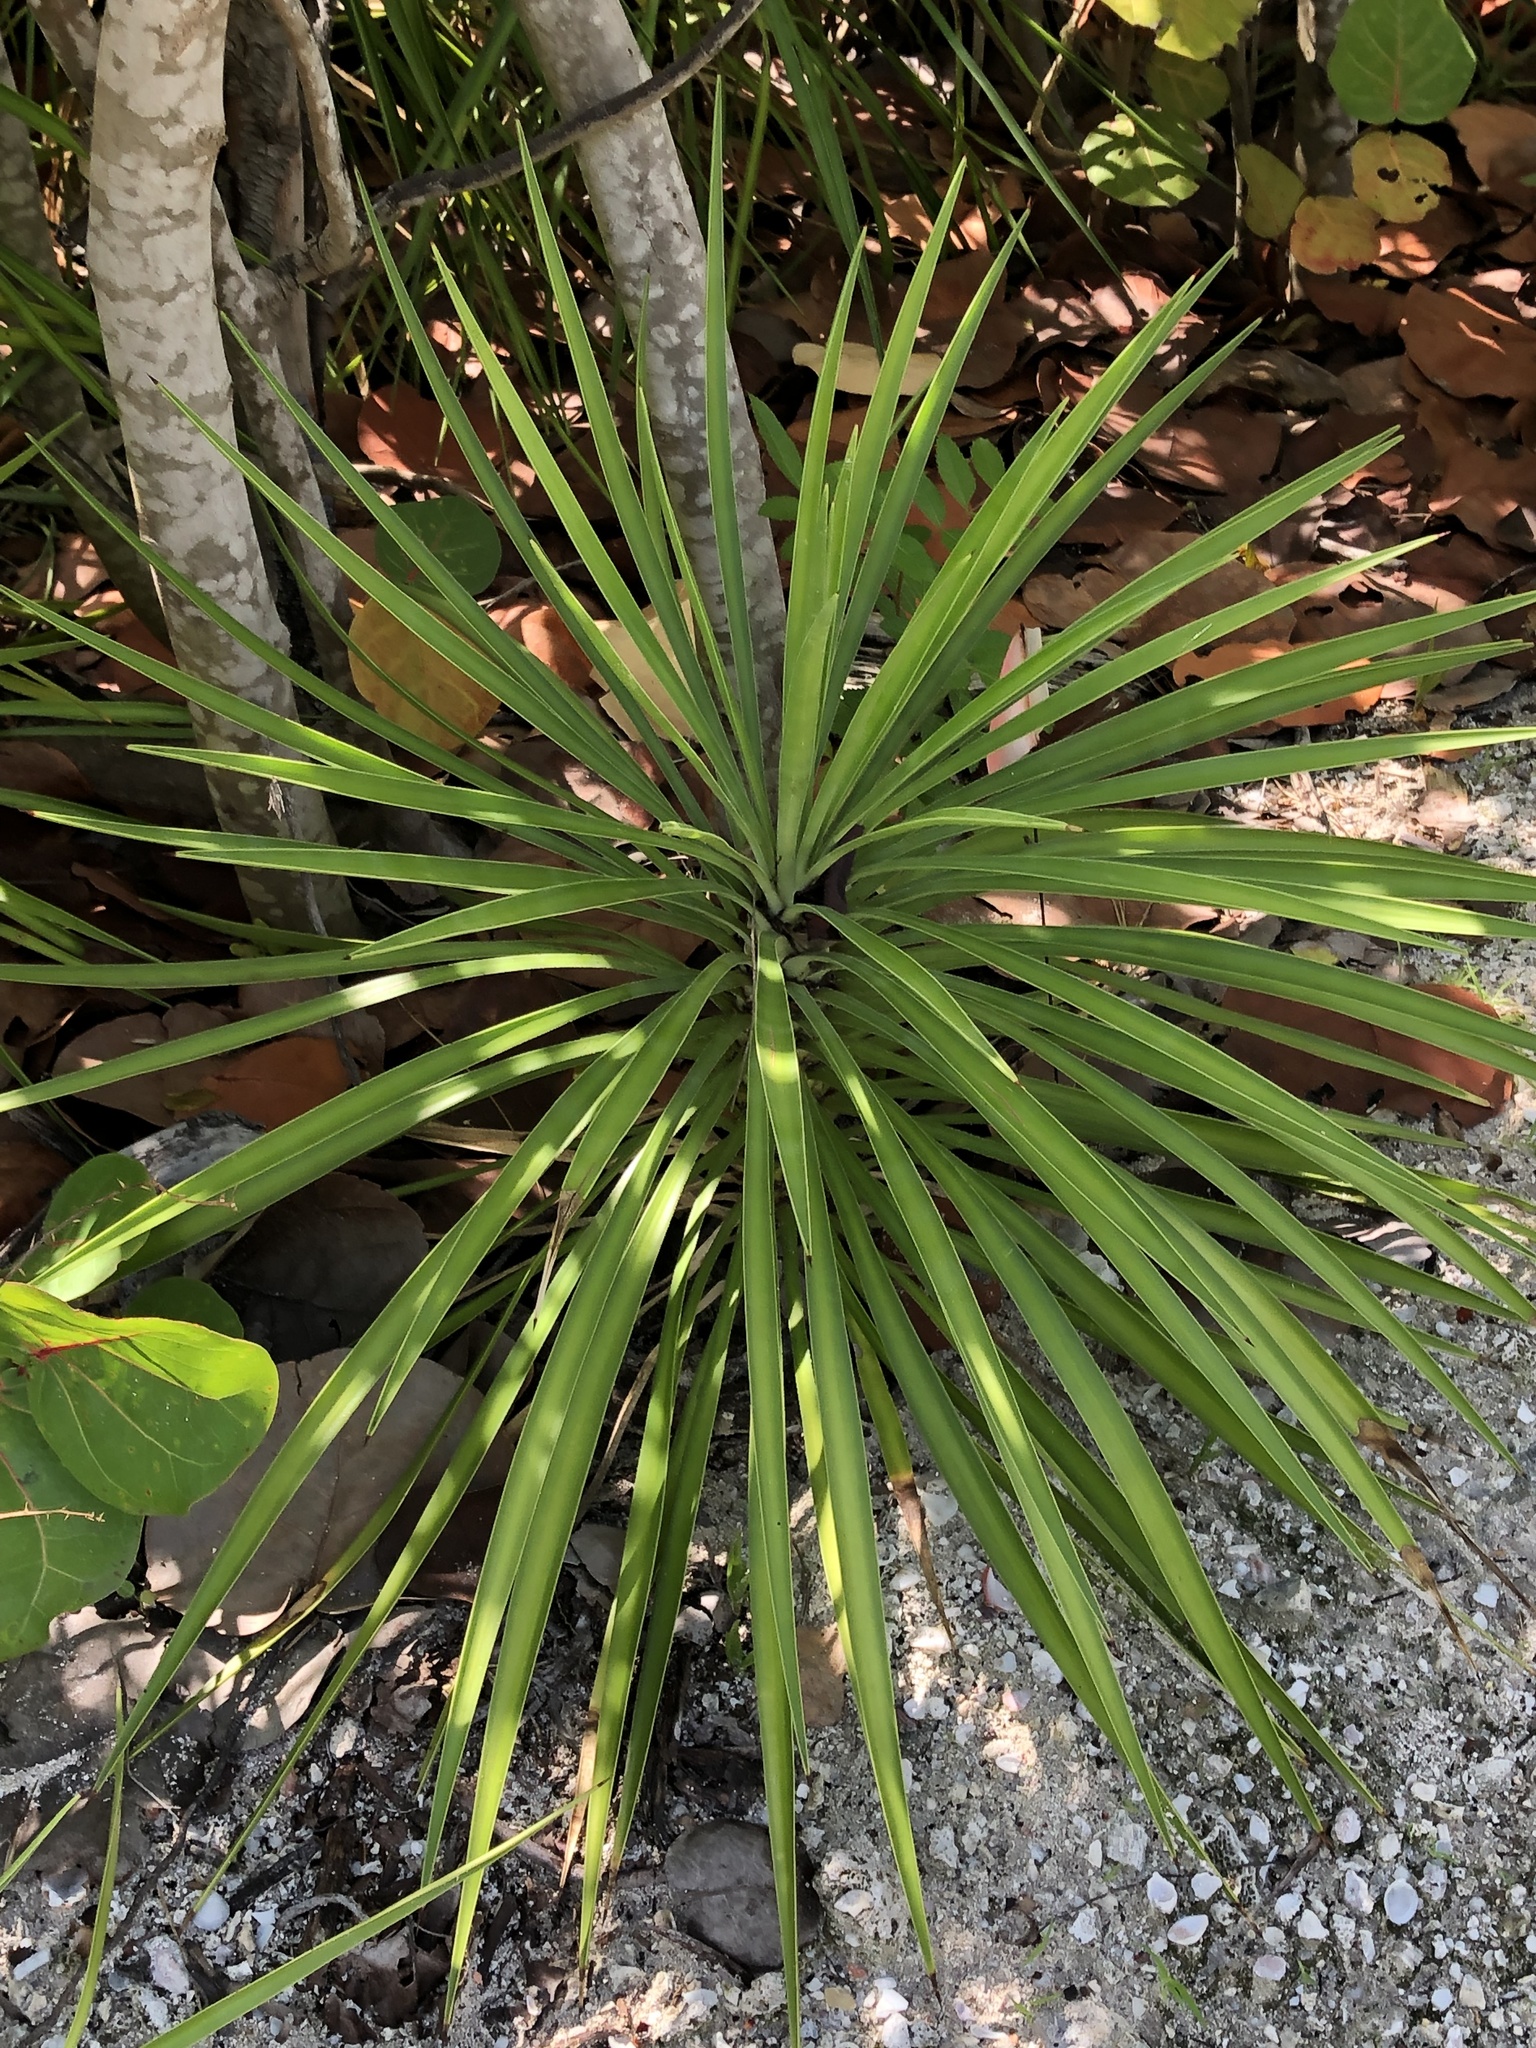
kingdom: Plantae
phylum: Tracheophyta
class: Liliopsida
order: Asparagales
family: Asparagaceae
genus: Yucca
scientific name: Yucca aloifolia
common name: Aloe yucca
